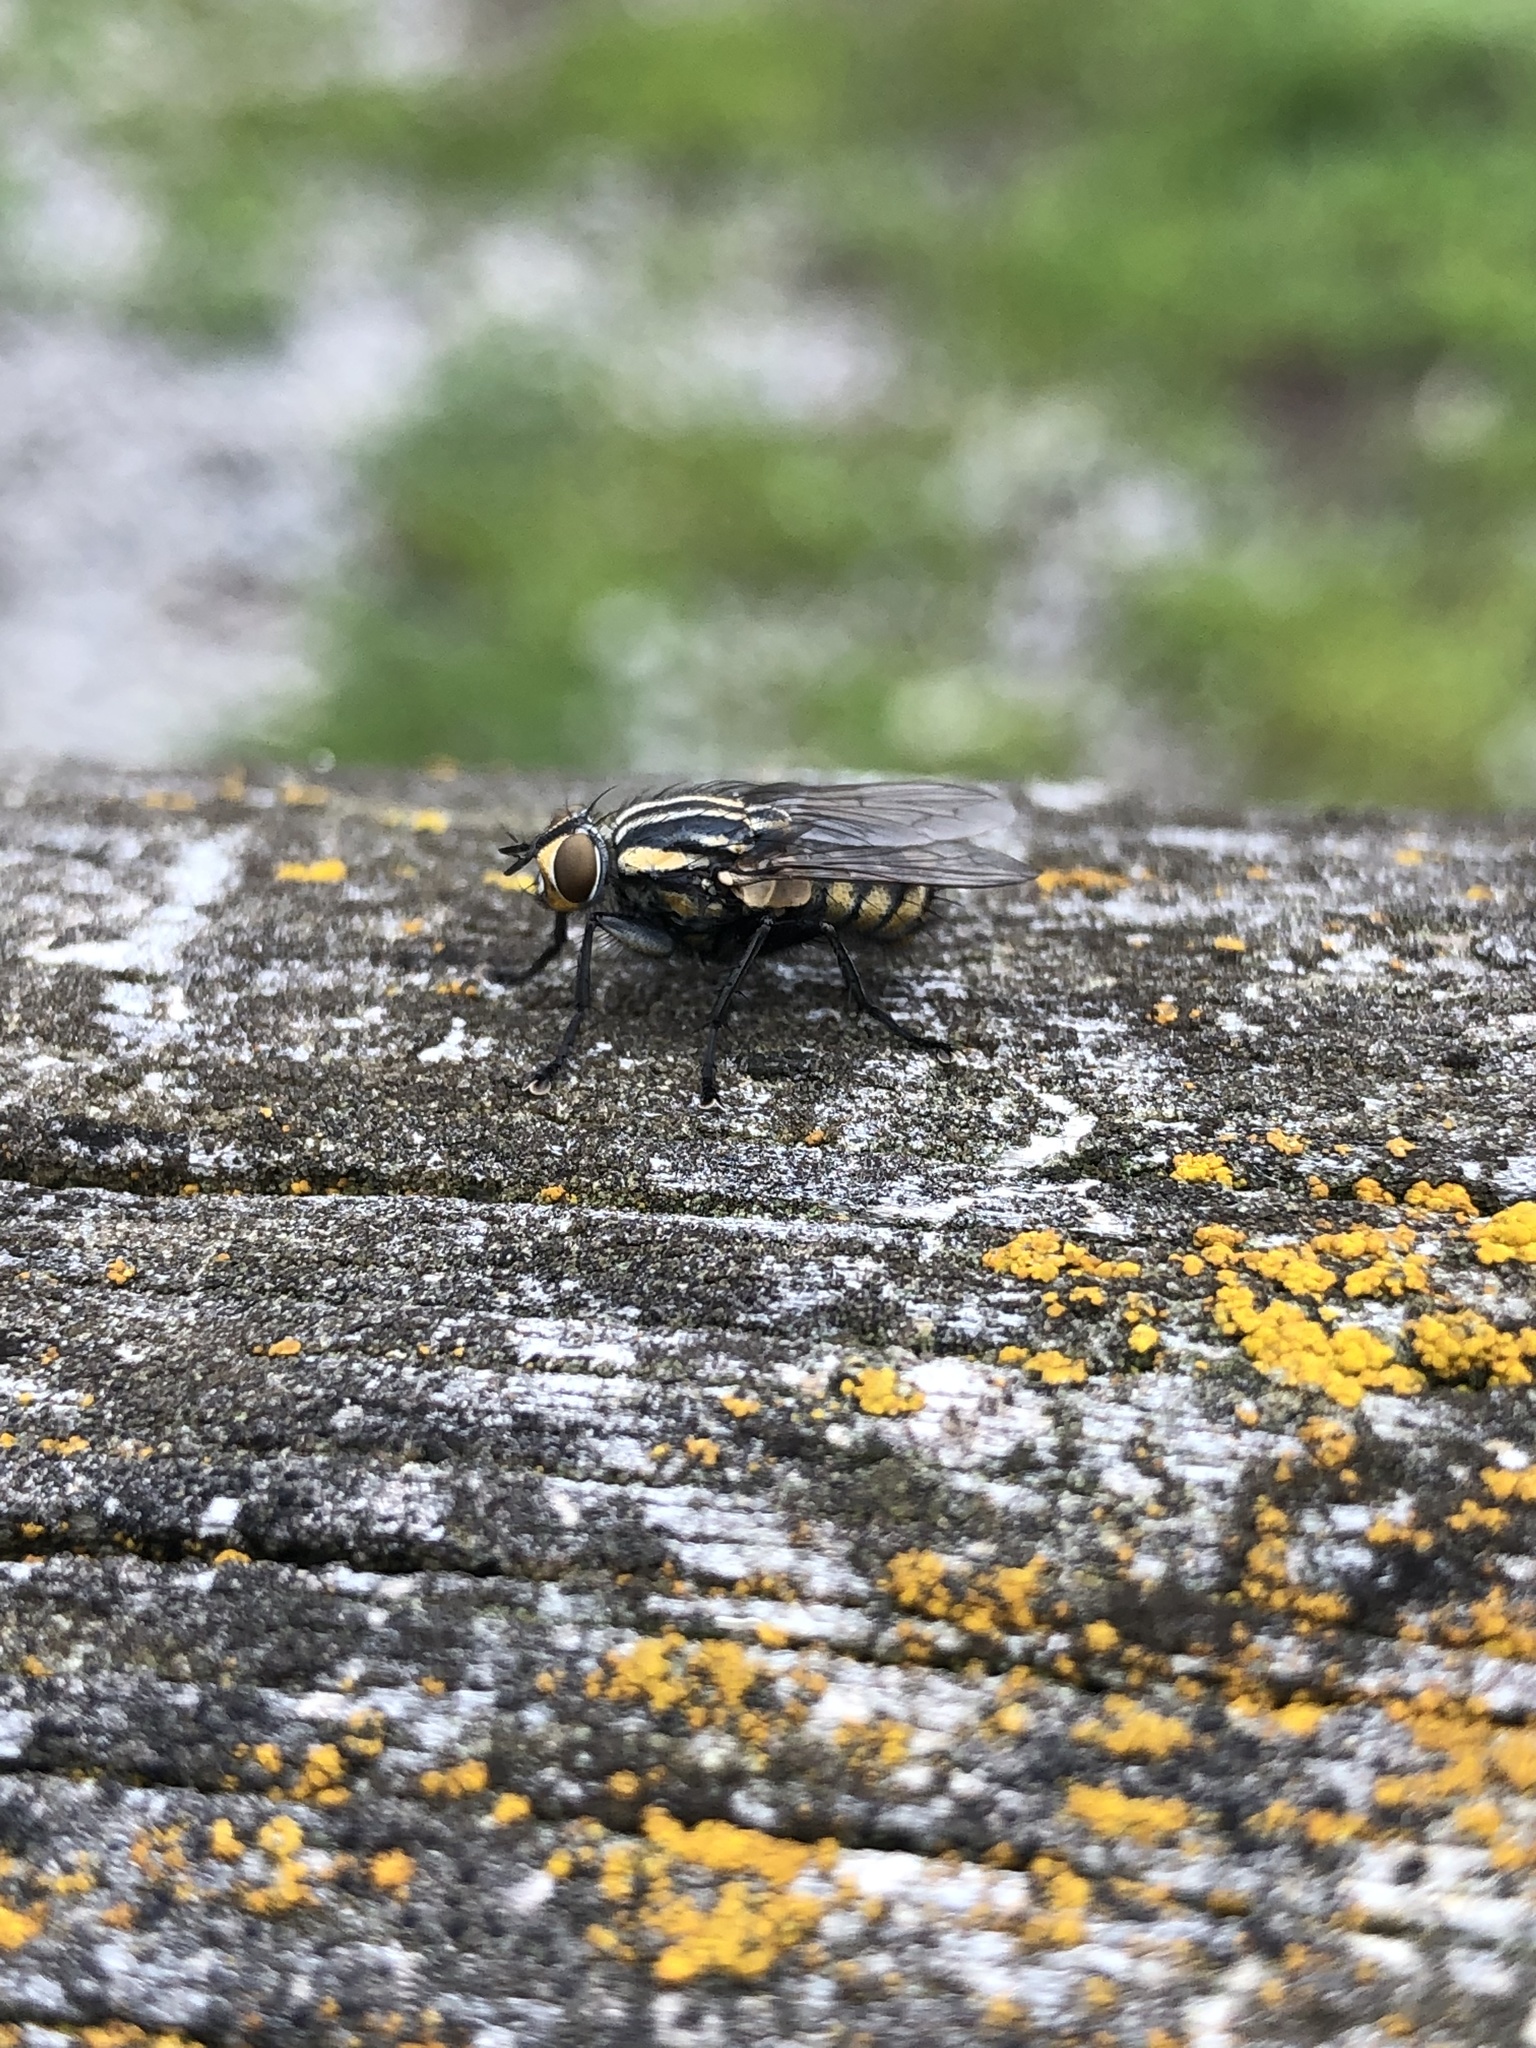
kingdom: Animalia
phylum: Arthropoda
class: Insecta
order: Diptera
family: Sarcophagidae
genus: Oxysarcodexia
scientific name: Oxysarcodexia varia
